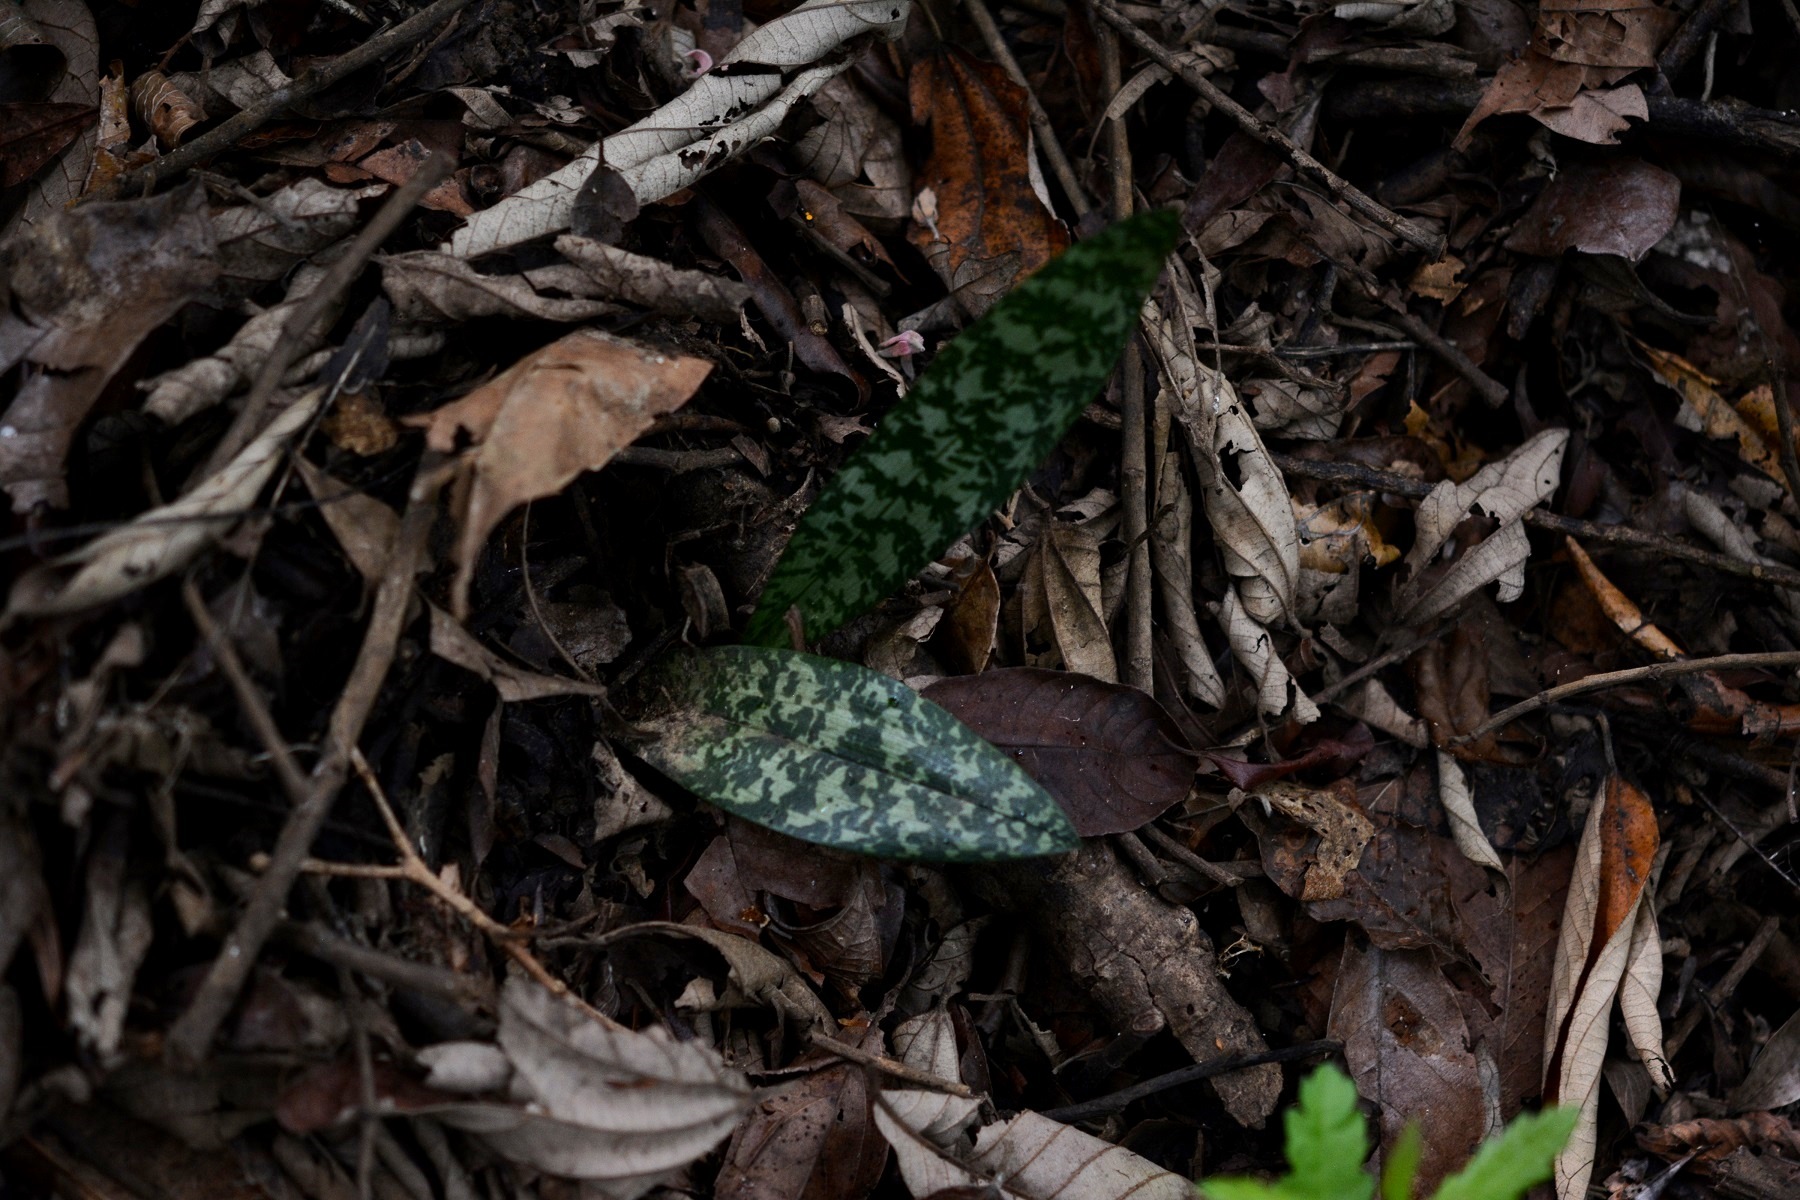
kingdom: Plantae
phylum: Tracheophyta
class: Liliopsida
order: Asparagales
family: Orchidaceae
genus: Eulophia
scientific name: Eulophia maculata
